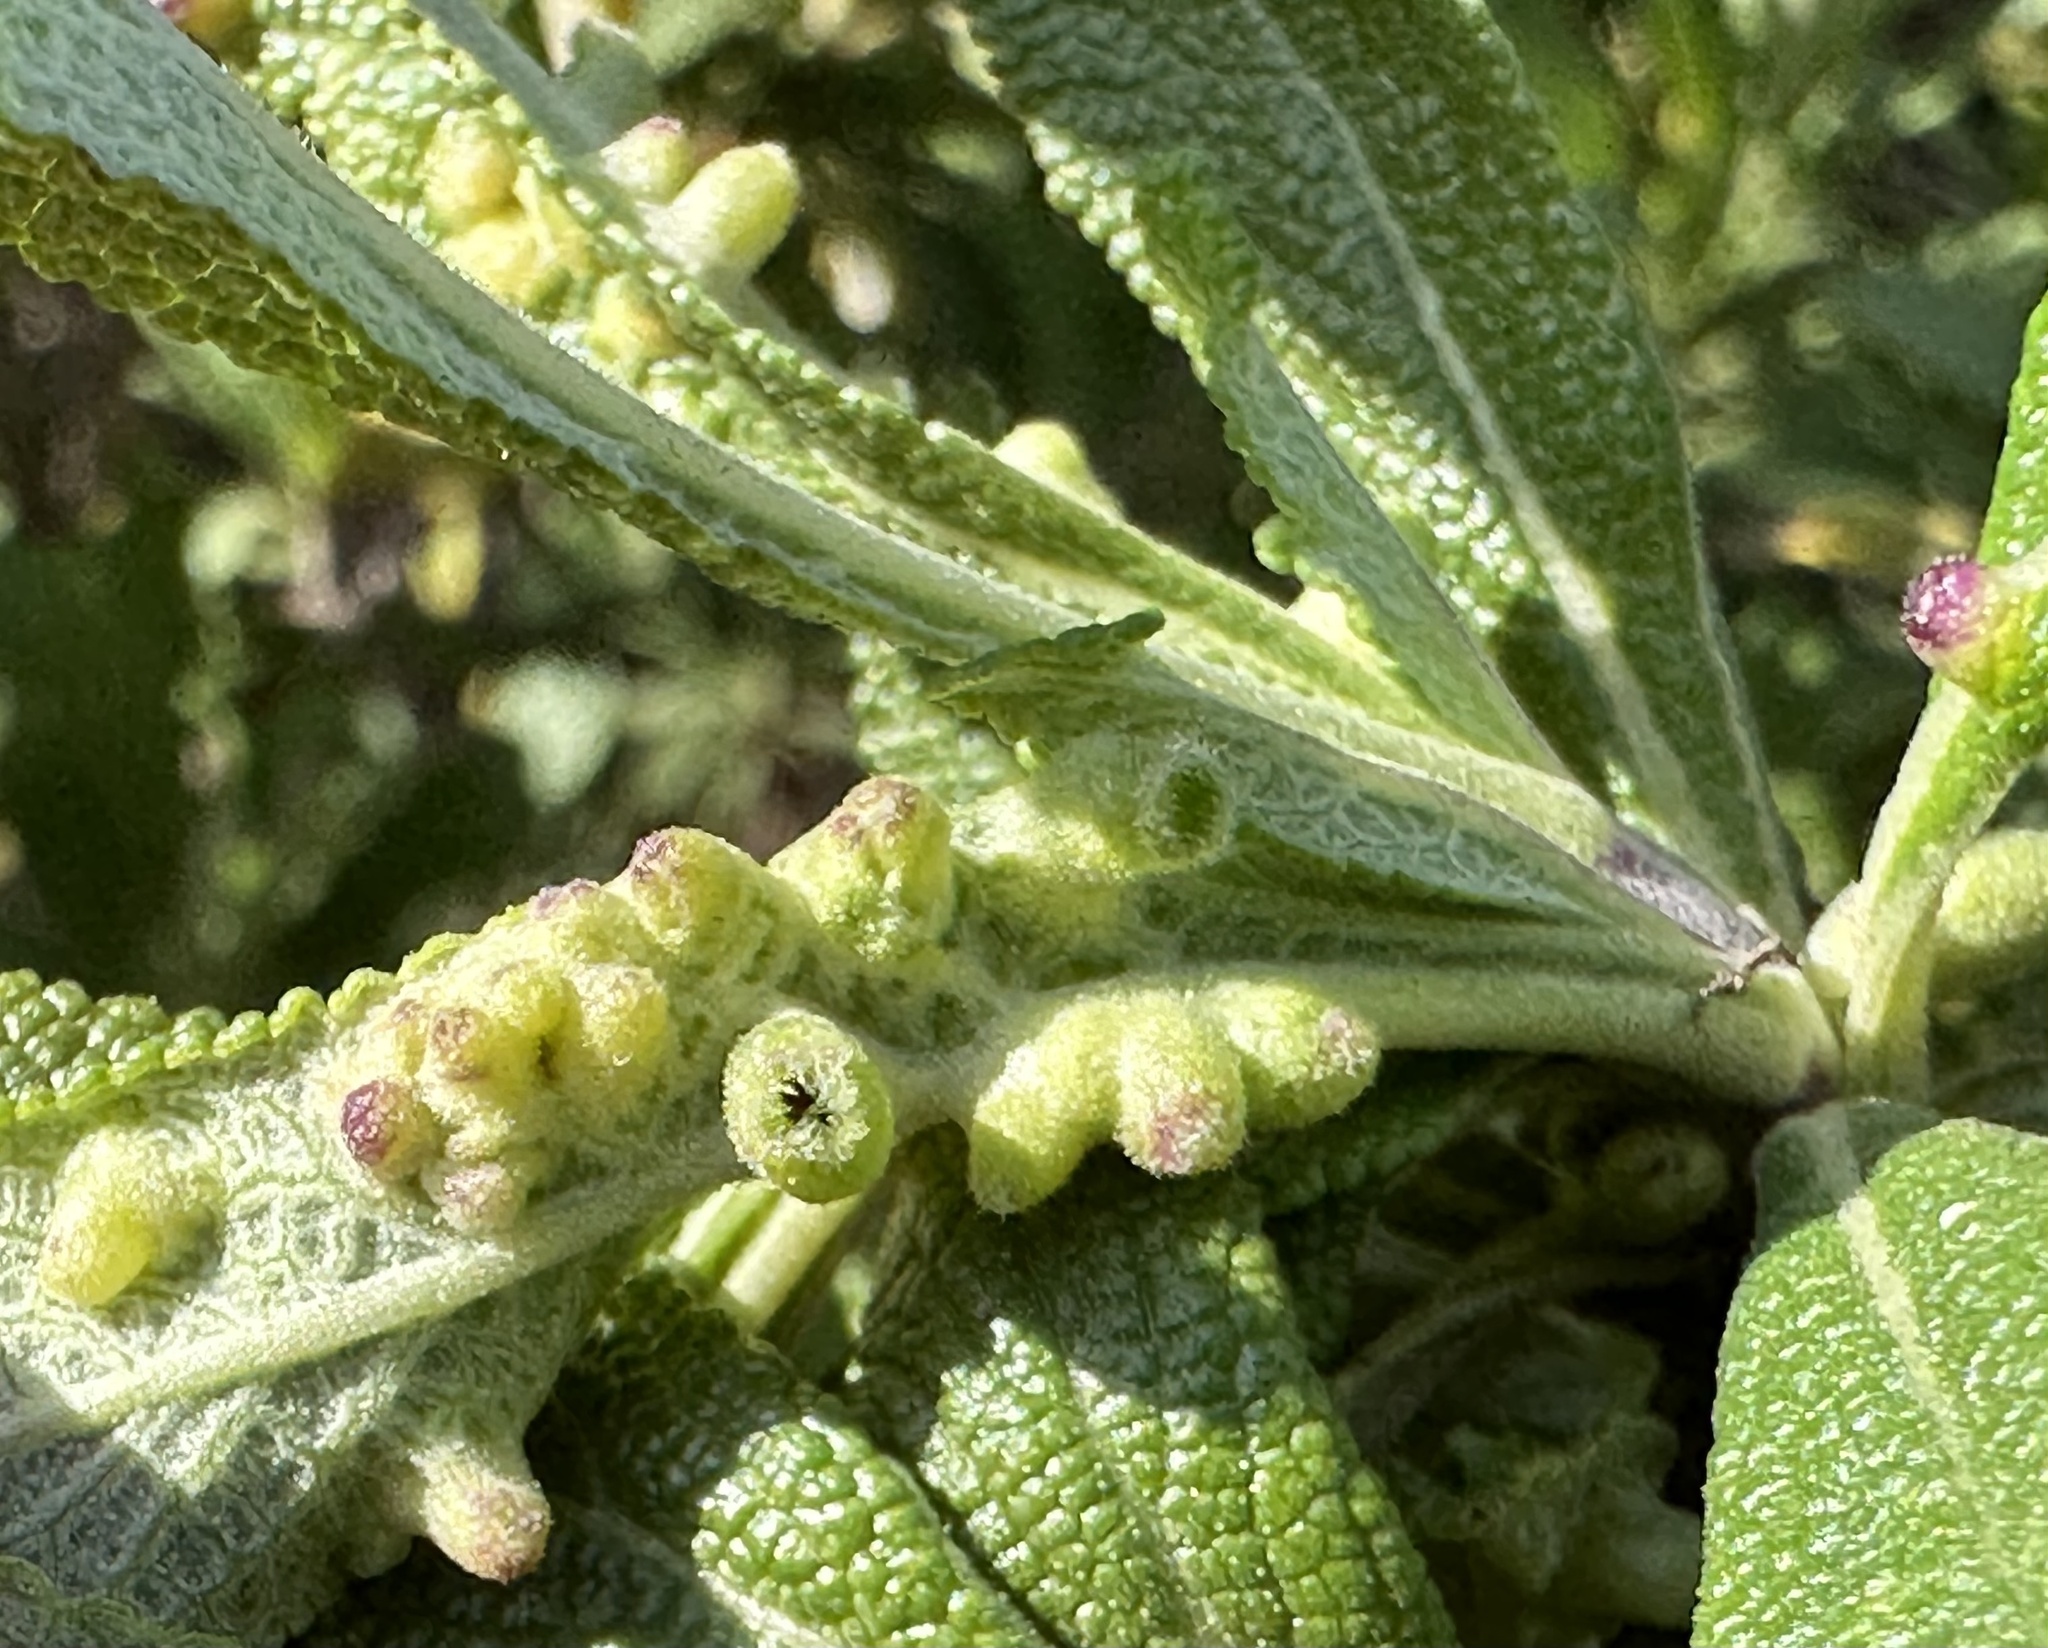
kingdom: Animalia
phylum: Arthropoda
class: Insecta
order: Diptera
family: Cecidomyiidae
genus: Rhopalomyia
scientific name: Rhopalomyia audibertiae
